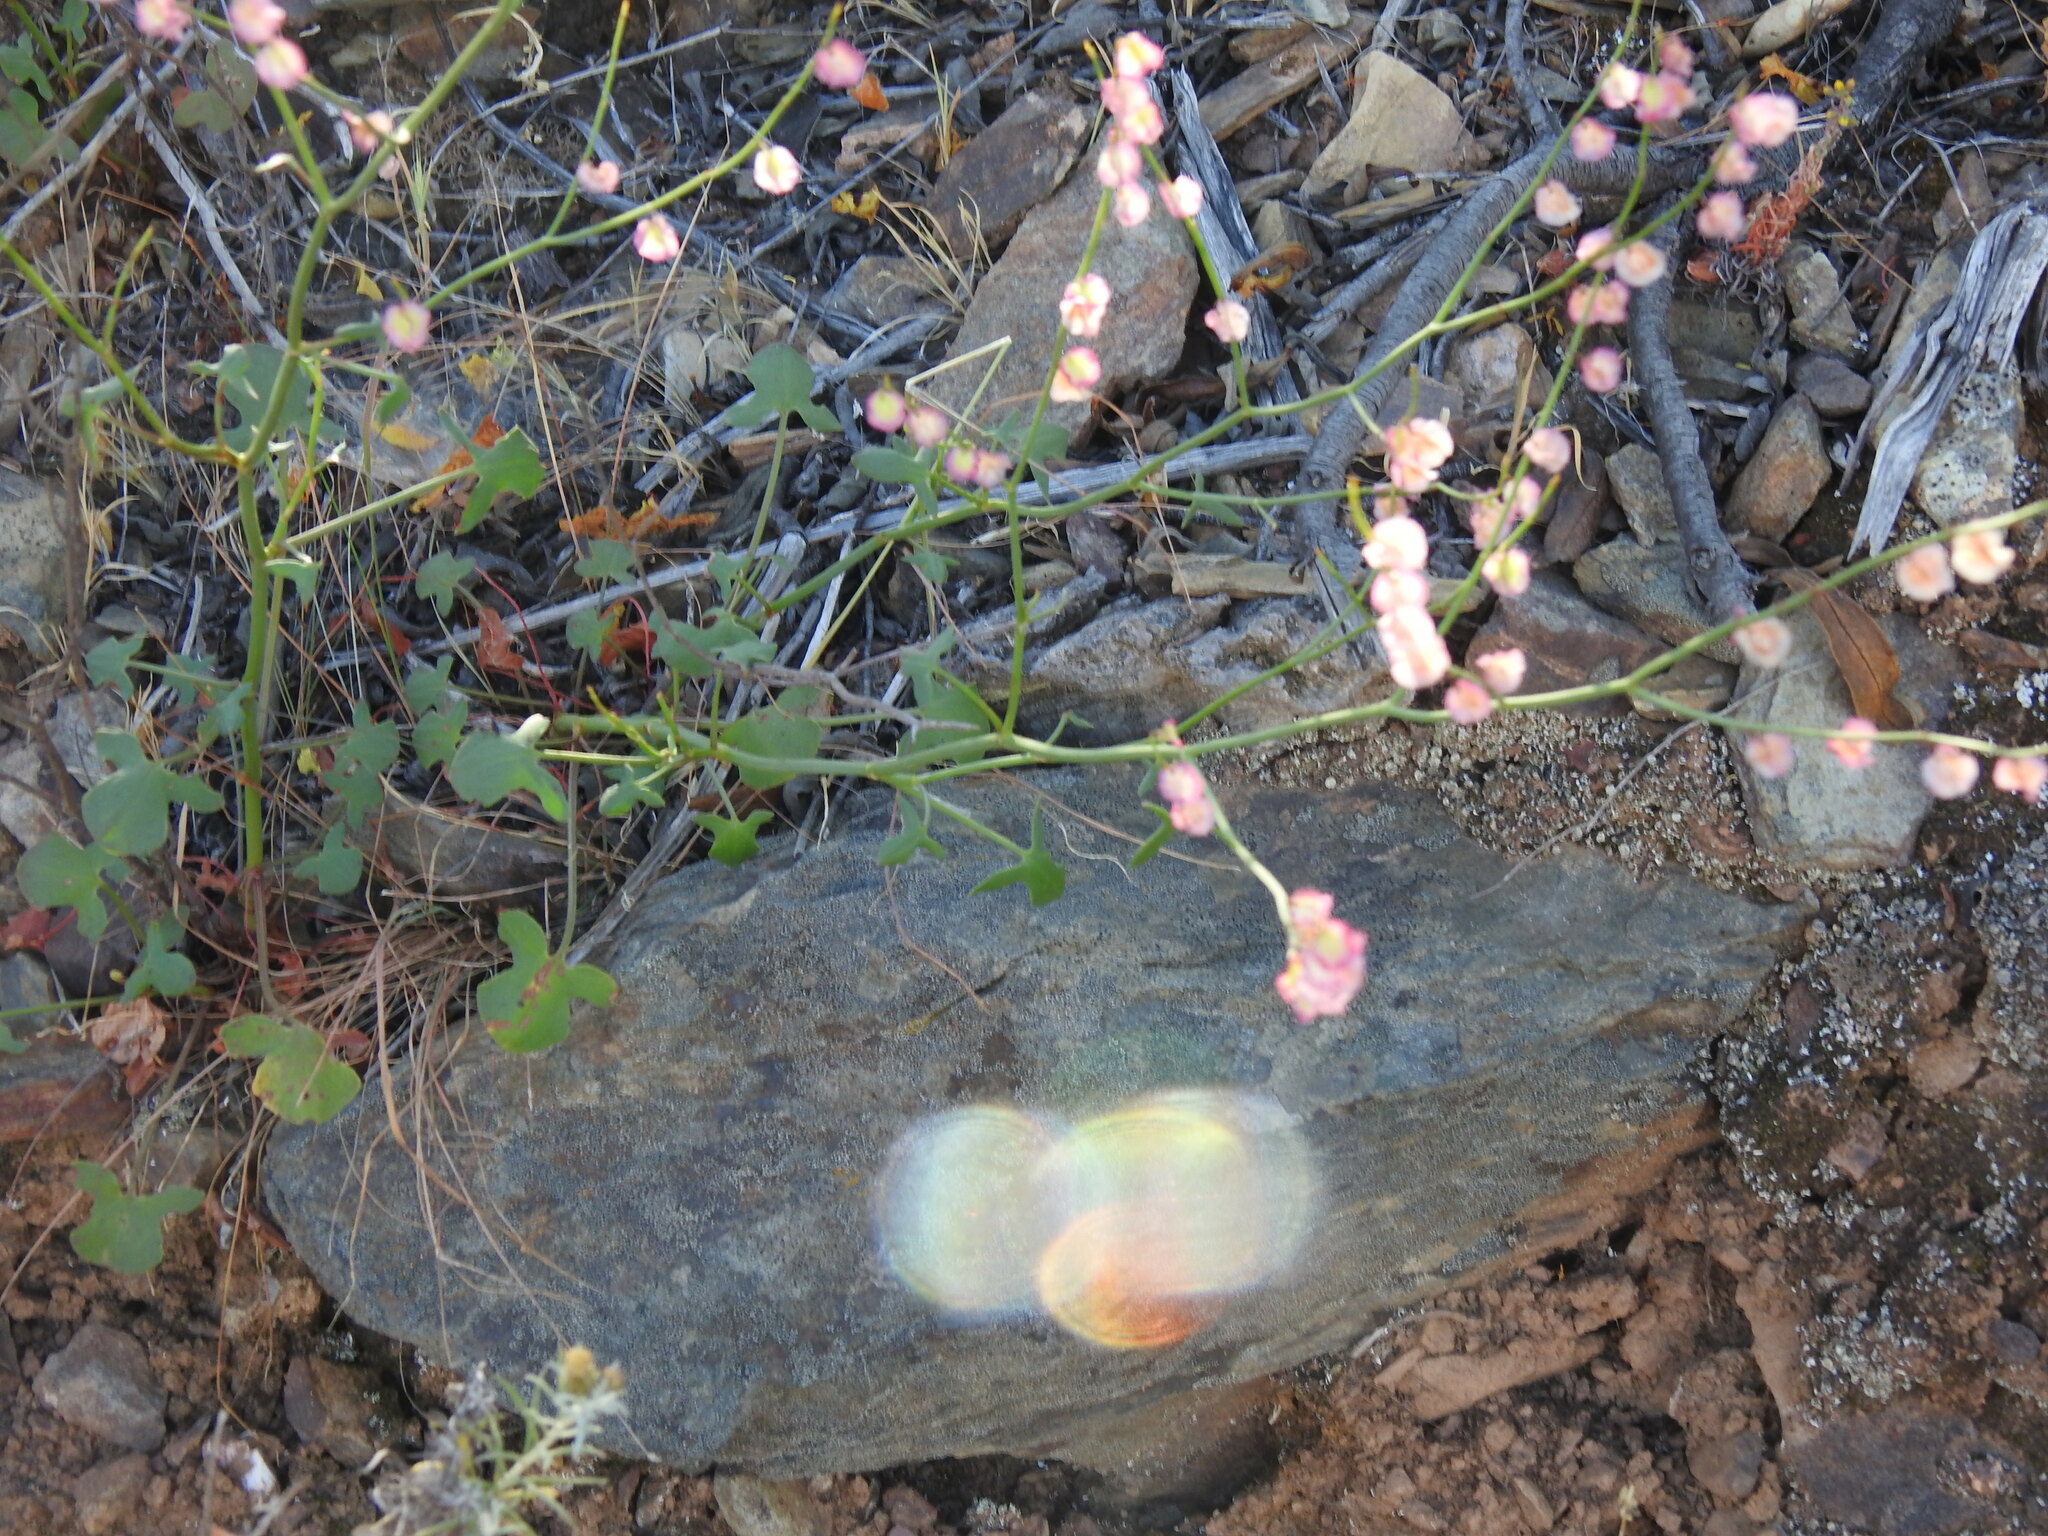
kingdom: Plantae
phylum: Tracheophyta
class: Magnoliopsida
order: Caryophyllales
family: Polygonaceae
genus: Rumex
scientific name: Rumex induratus
